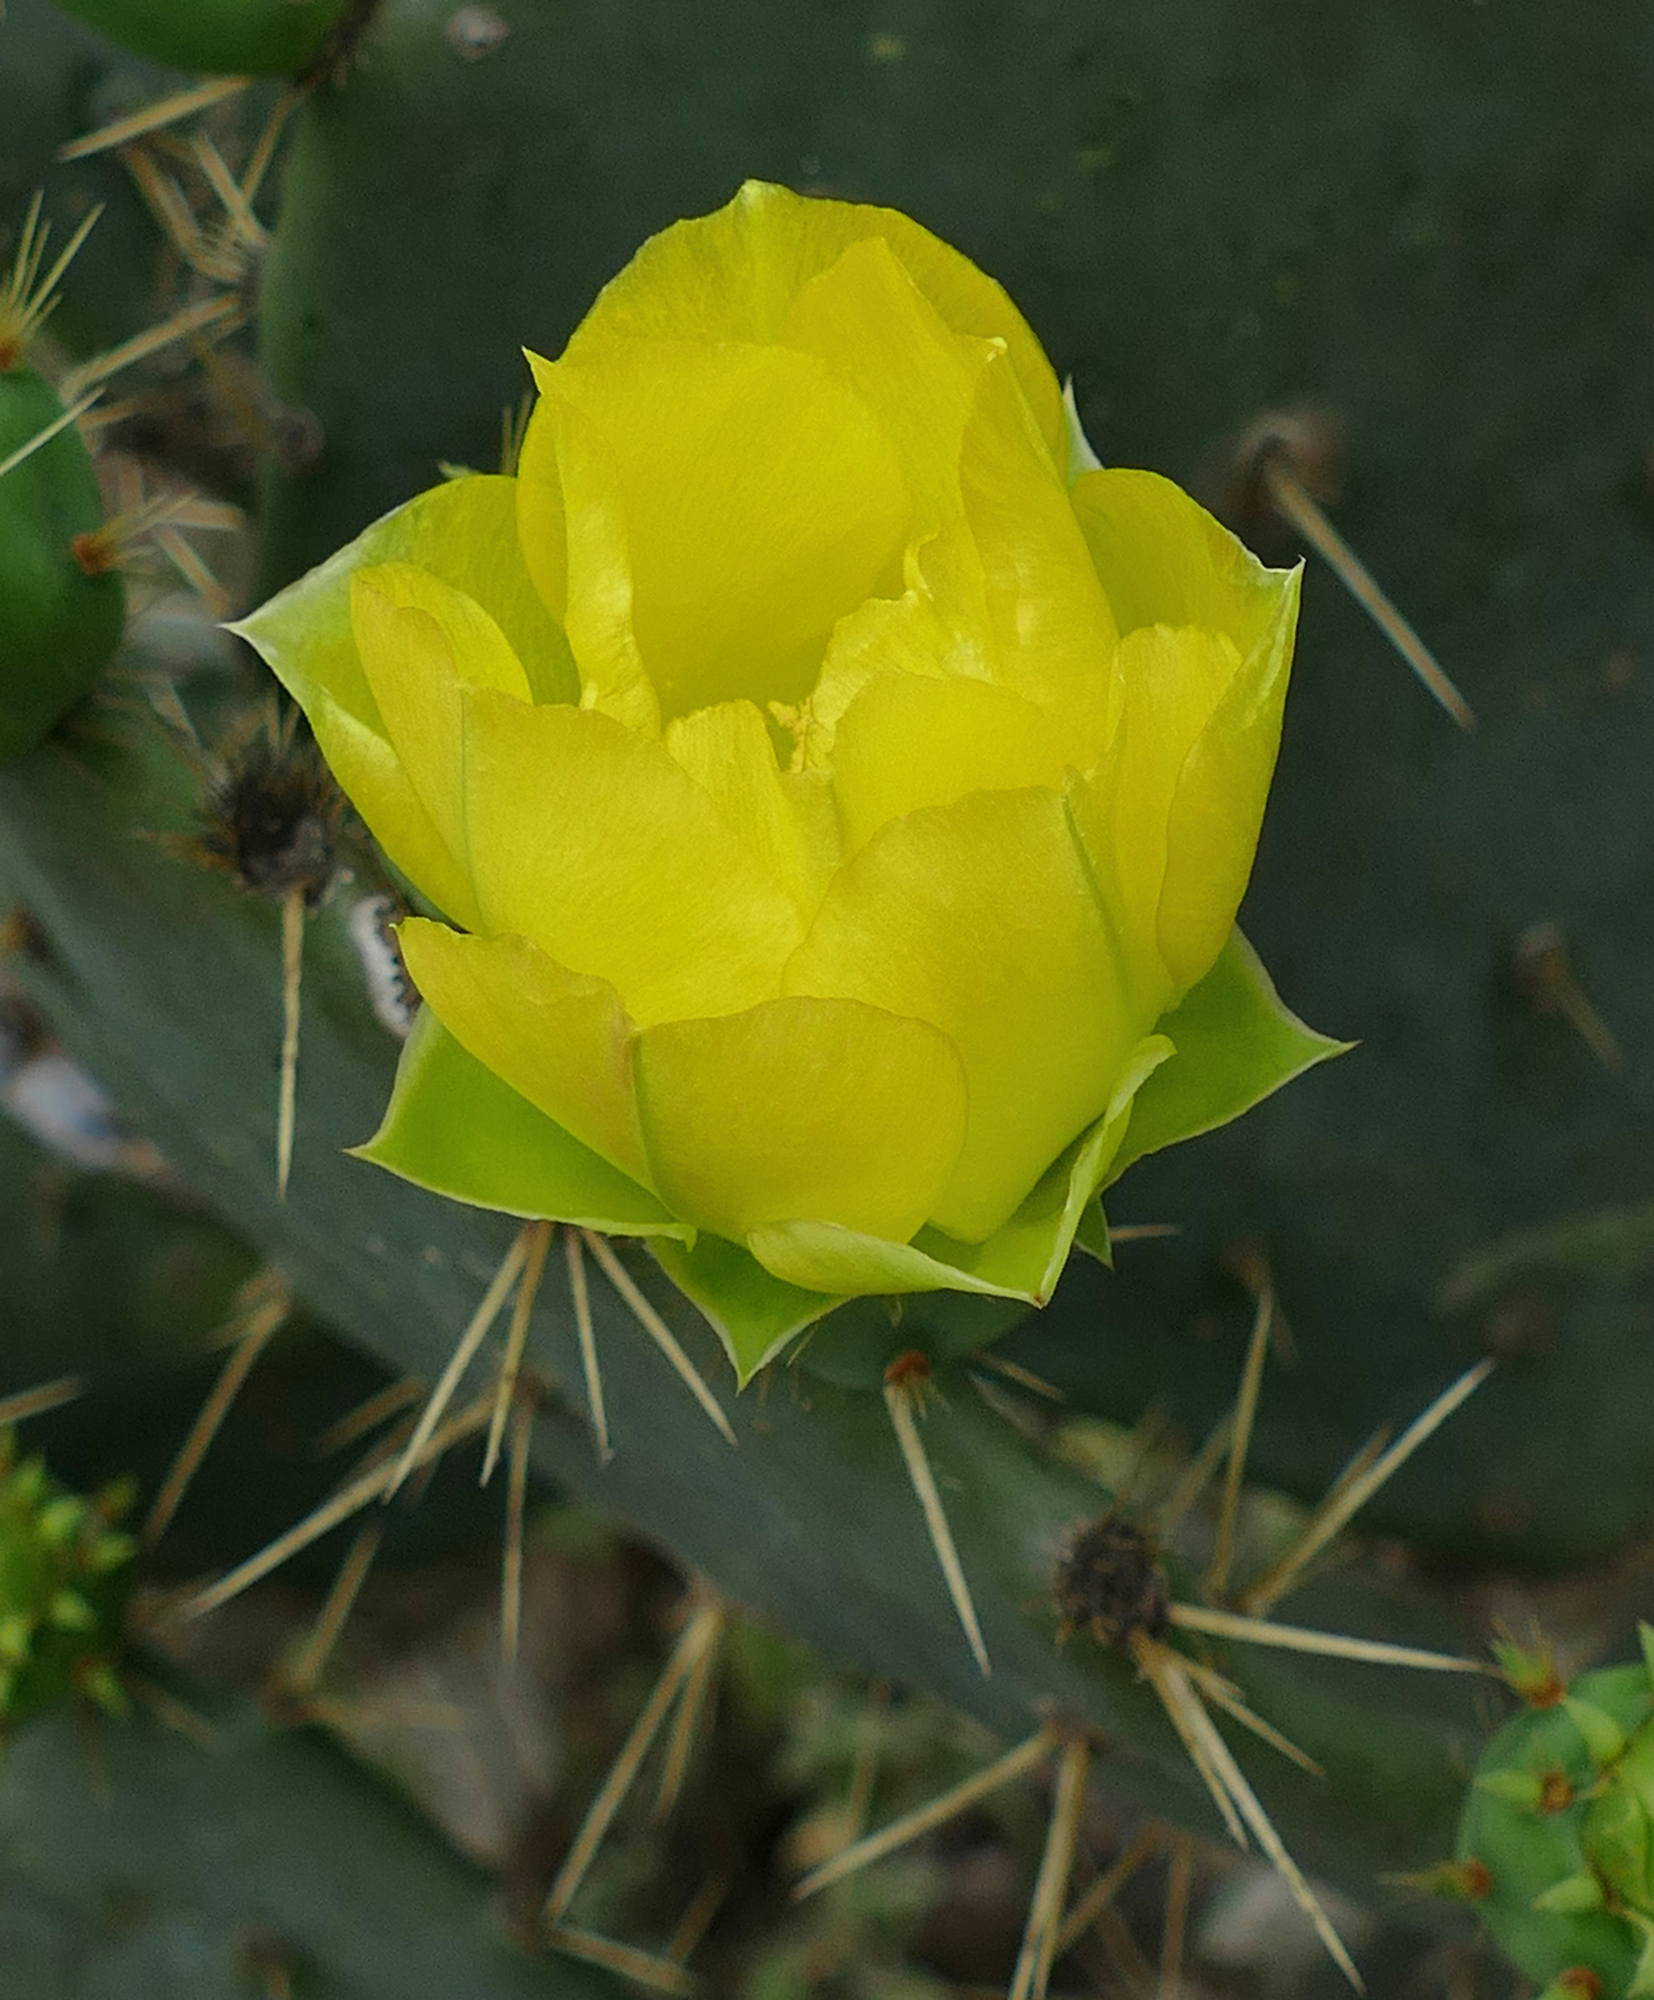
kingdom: Plantae
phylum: Tracheophyta
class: Magnoliopsida
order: Caryophyllales
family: Cactaceae
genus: Opuntia
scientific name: Opuntia alta
